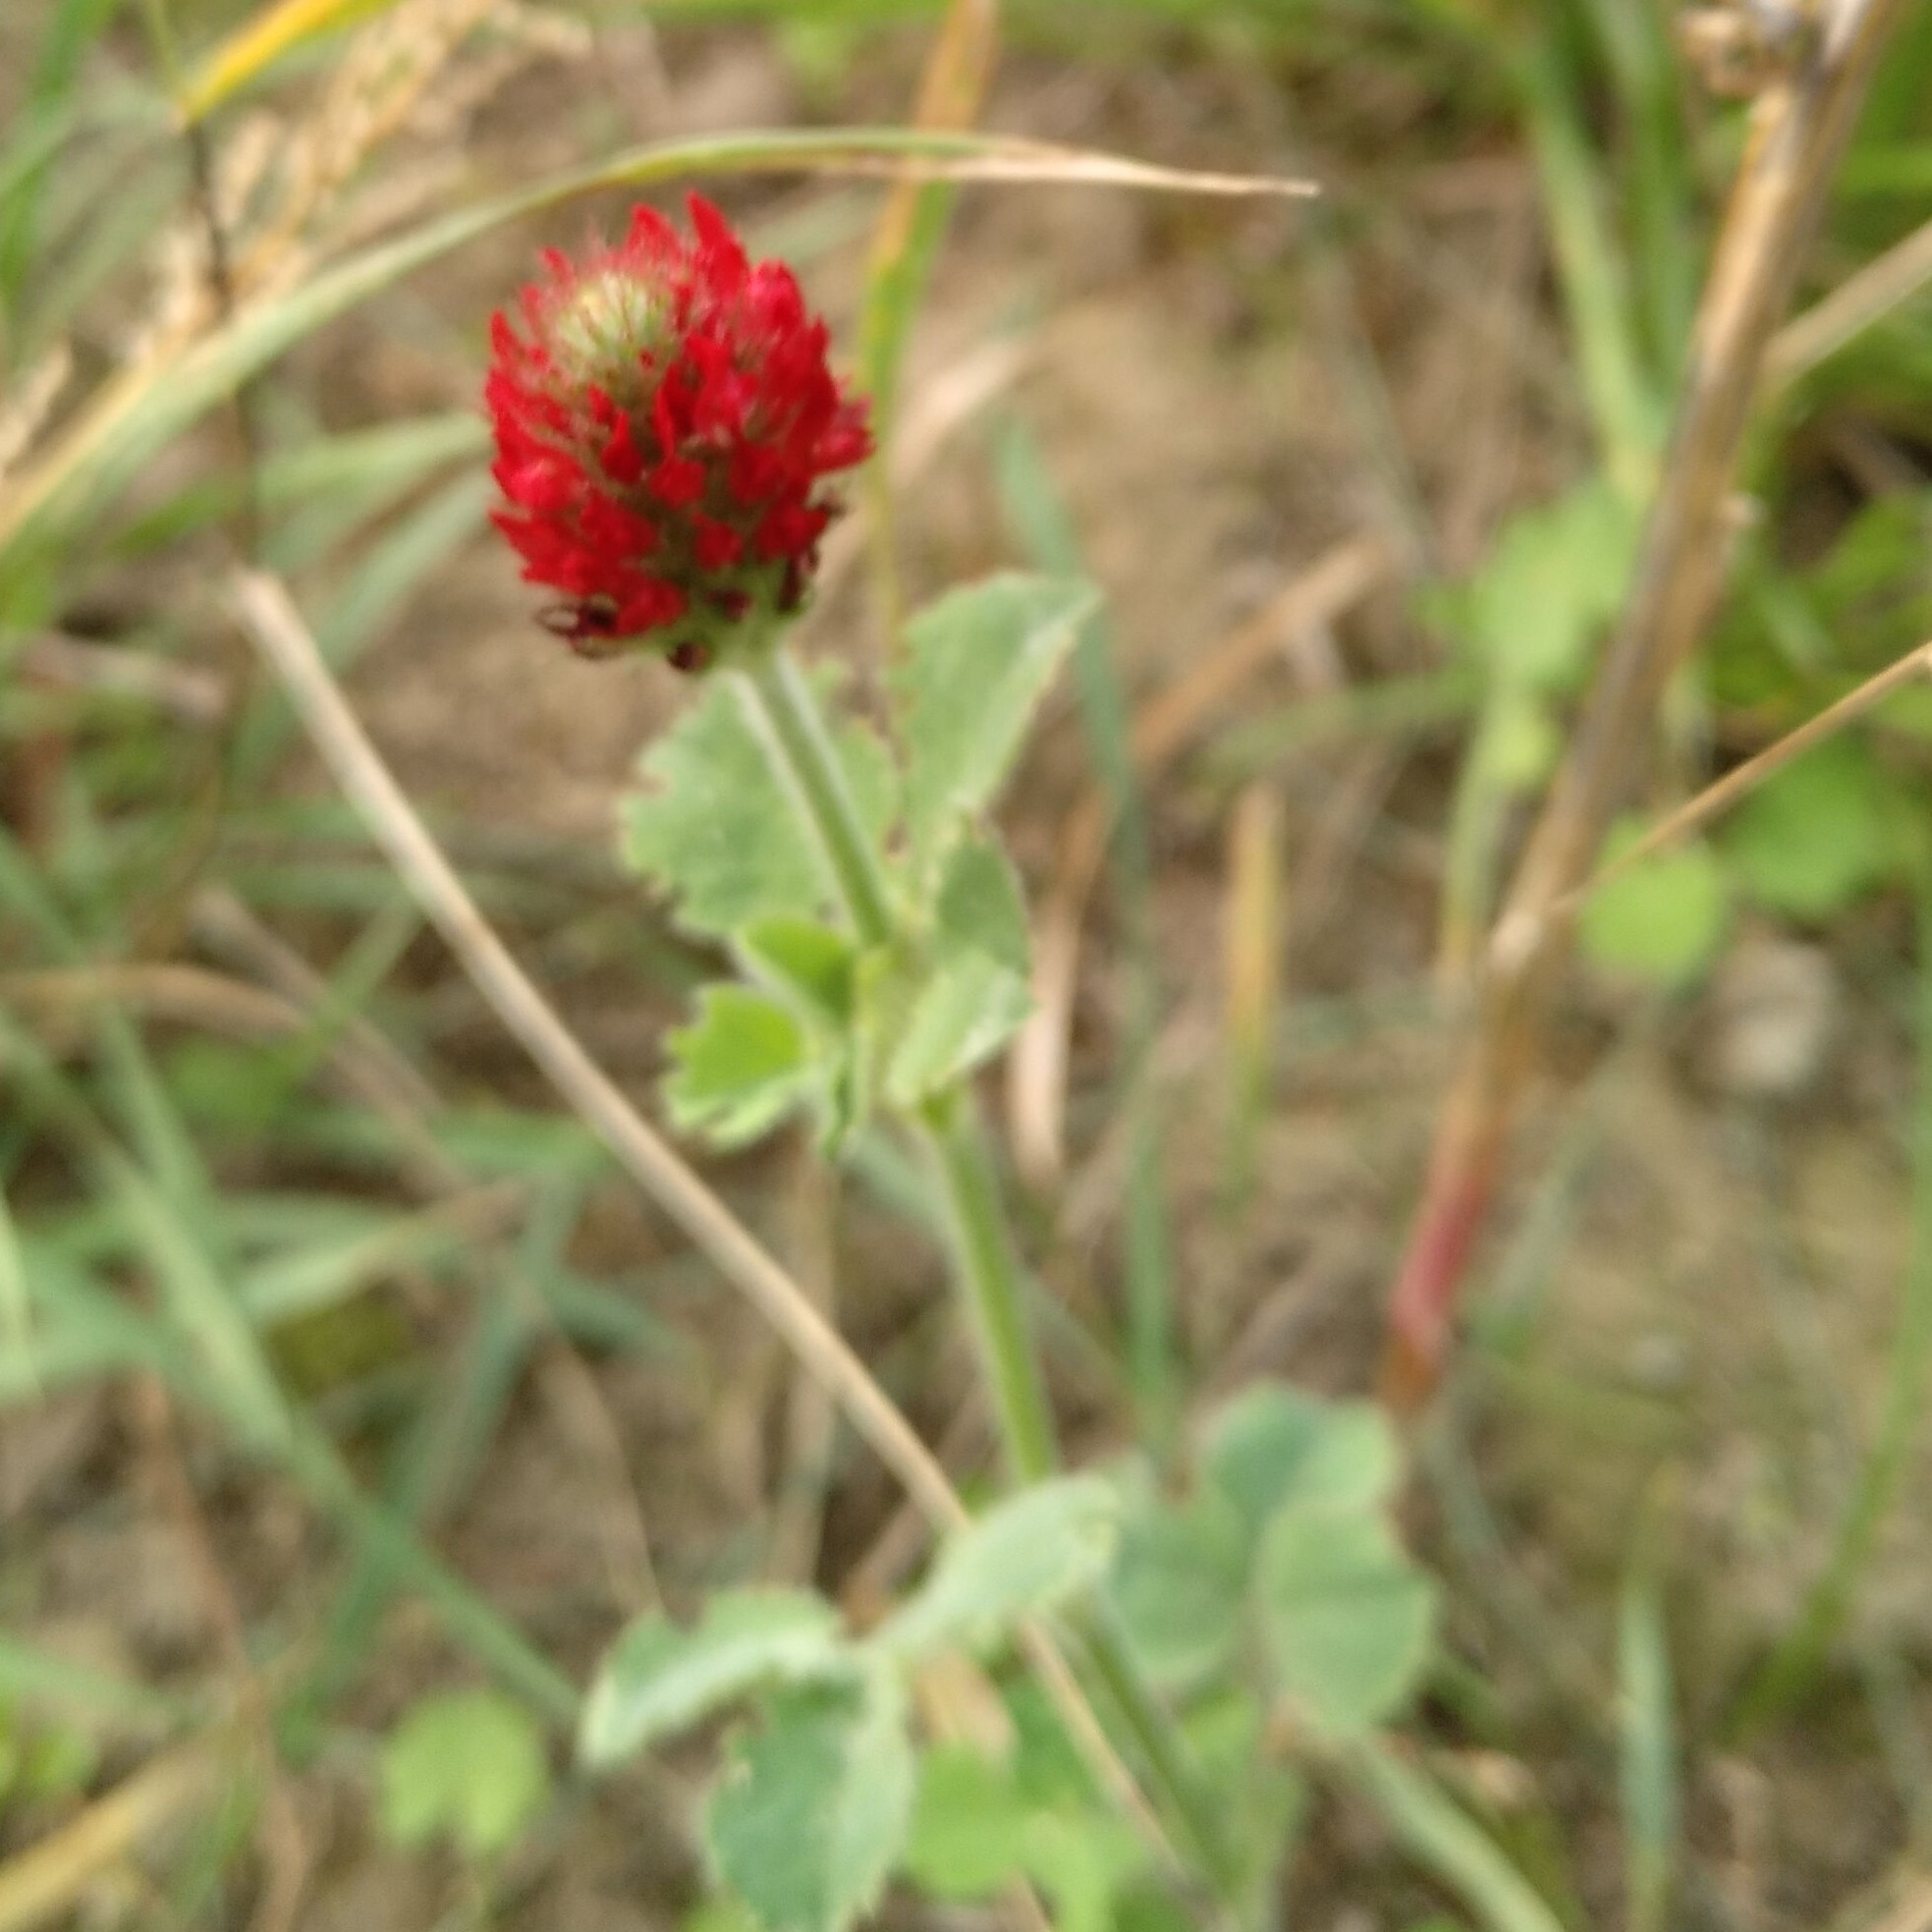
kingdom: Plantae
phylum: Tracheophyta
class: Magnoliopsida
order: Fabales
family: Fabaceae
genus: Trifolium
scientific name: Trifolium incarnatum
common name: Crimson clover
